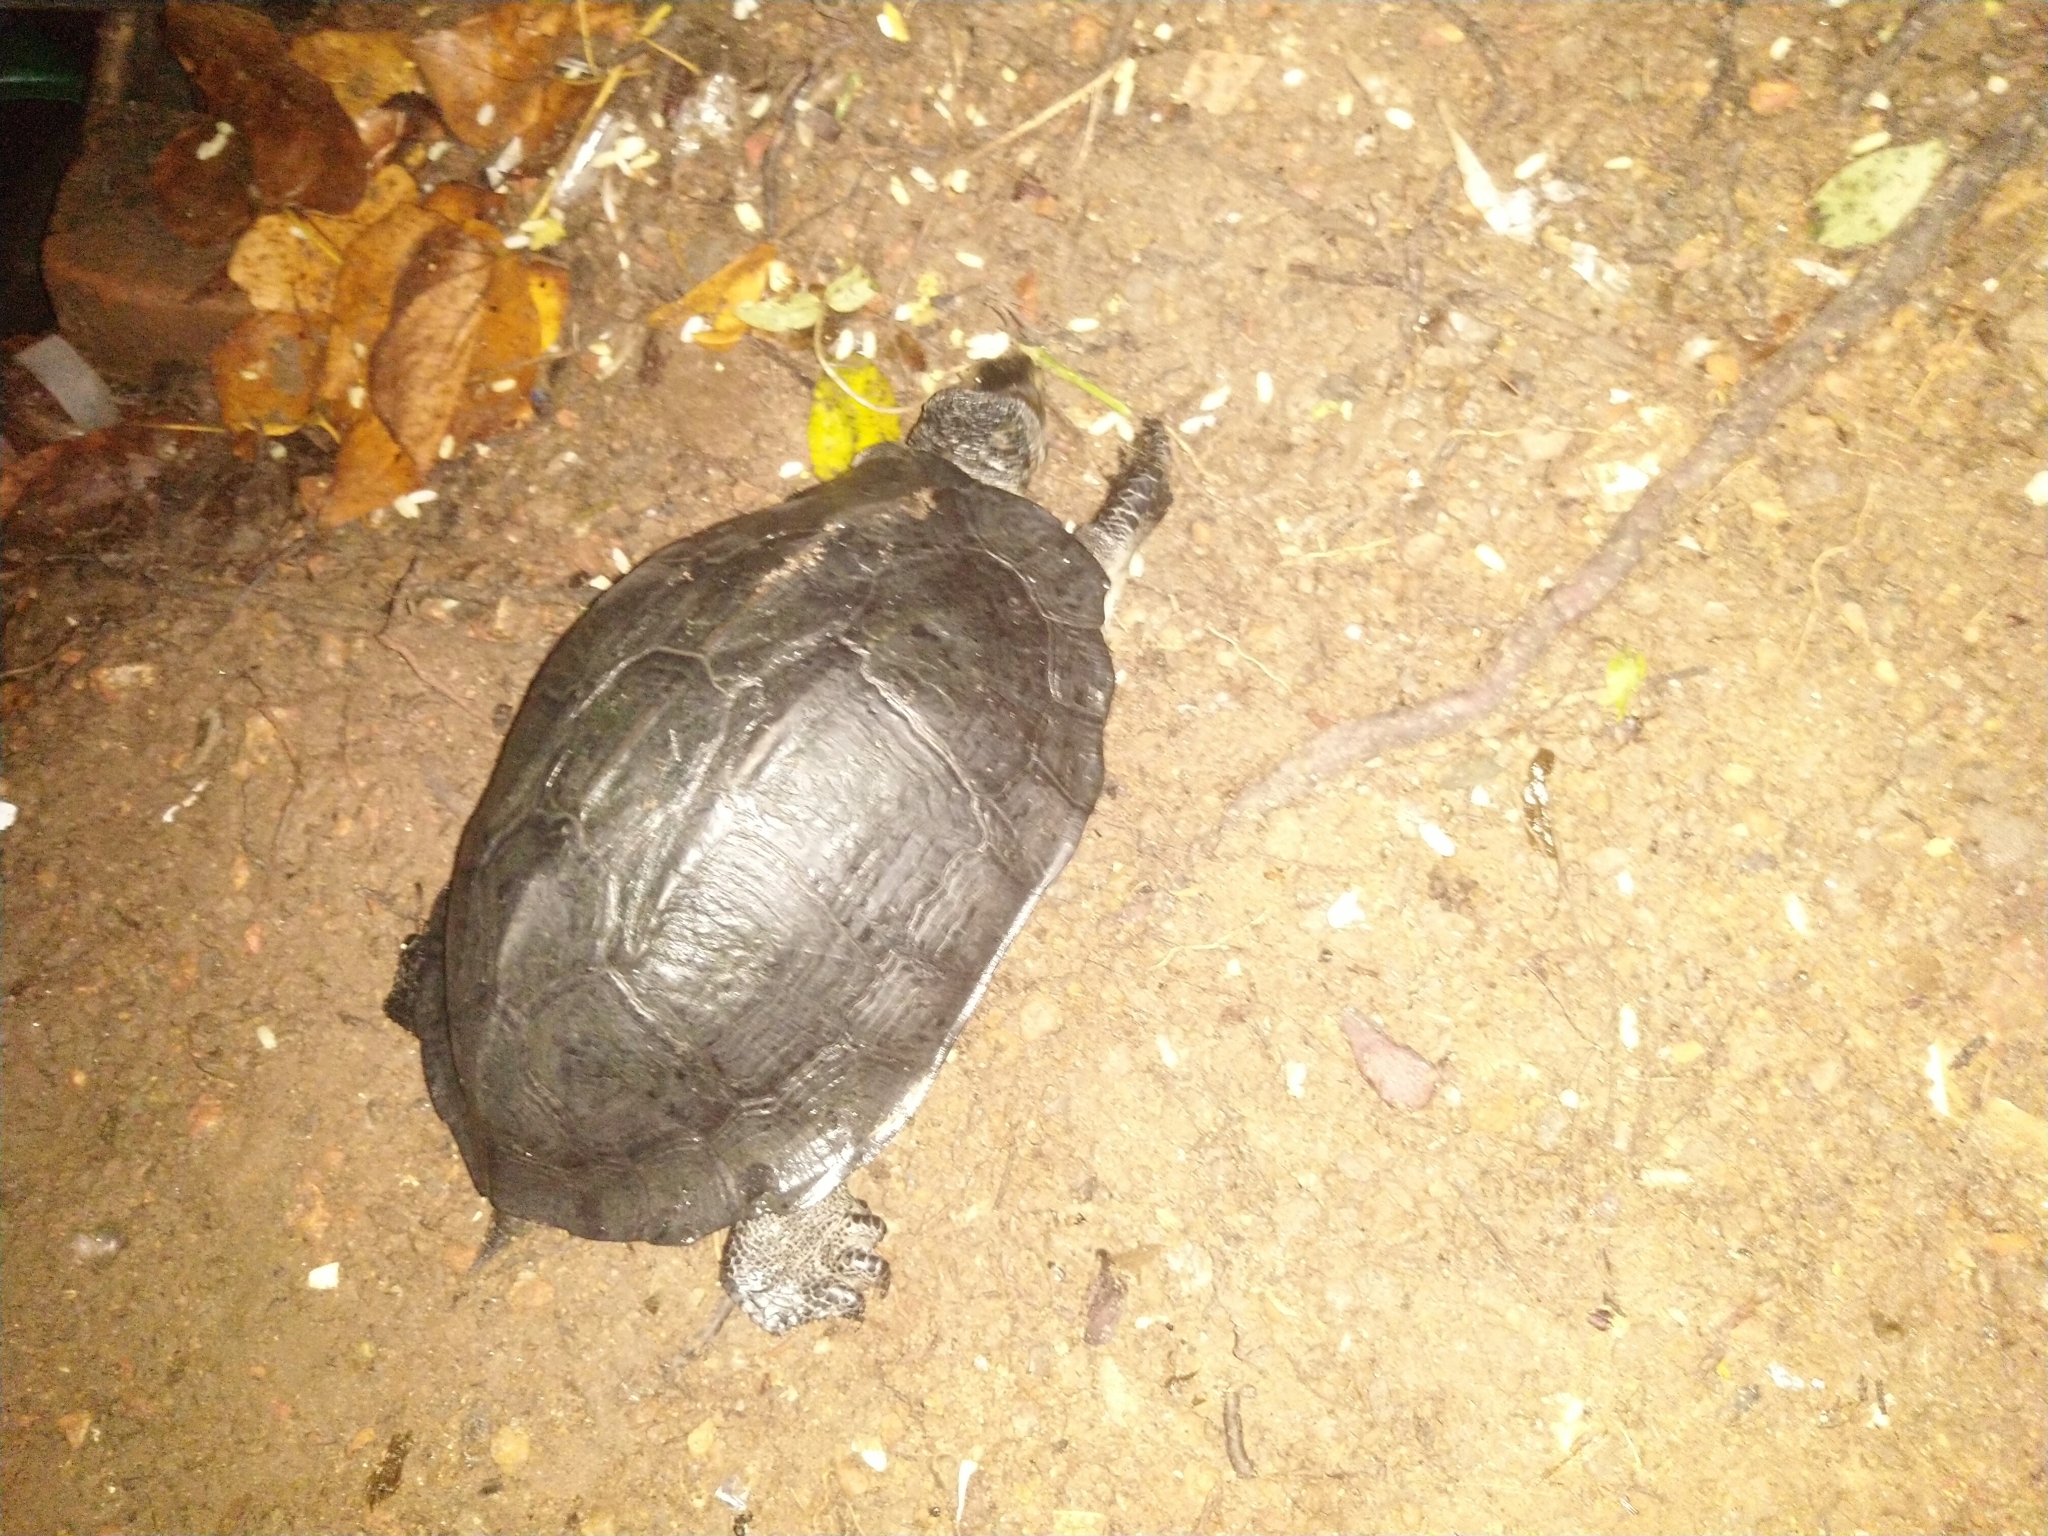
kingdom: Animalia
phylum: Chordata
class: Testudines
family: Geoemydidae
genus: Melanochelys
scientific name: Melanochelys trijuga
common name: Indian black turtle
